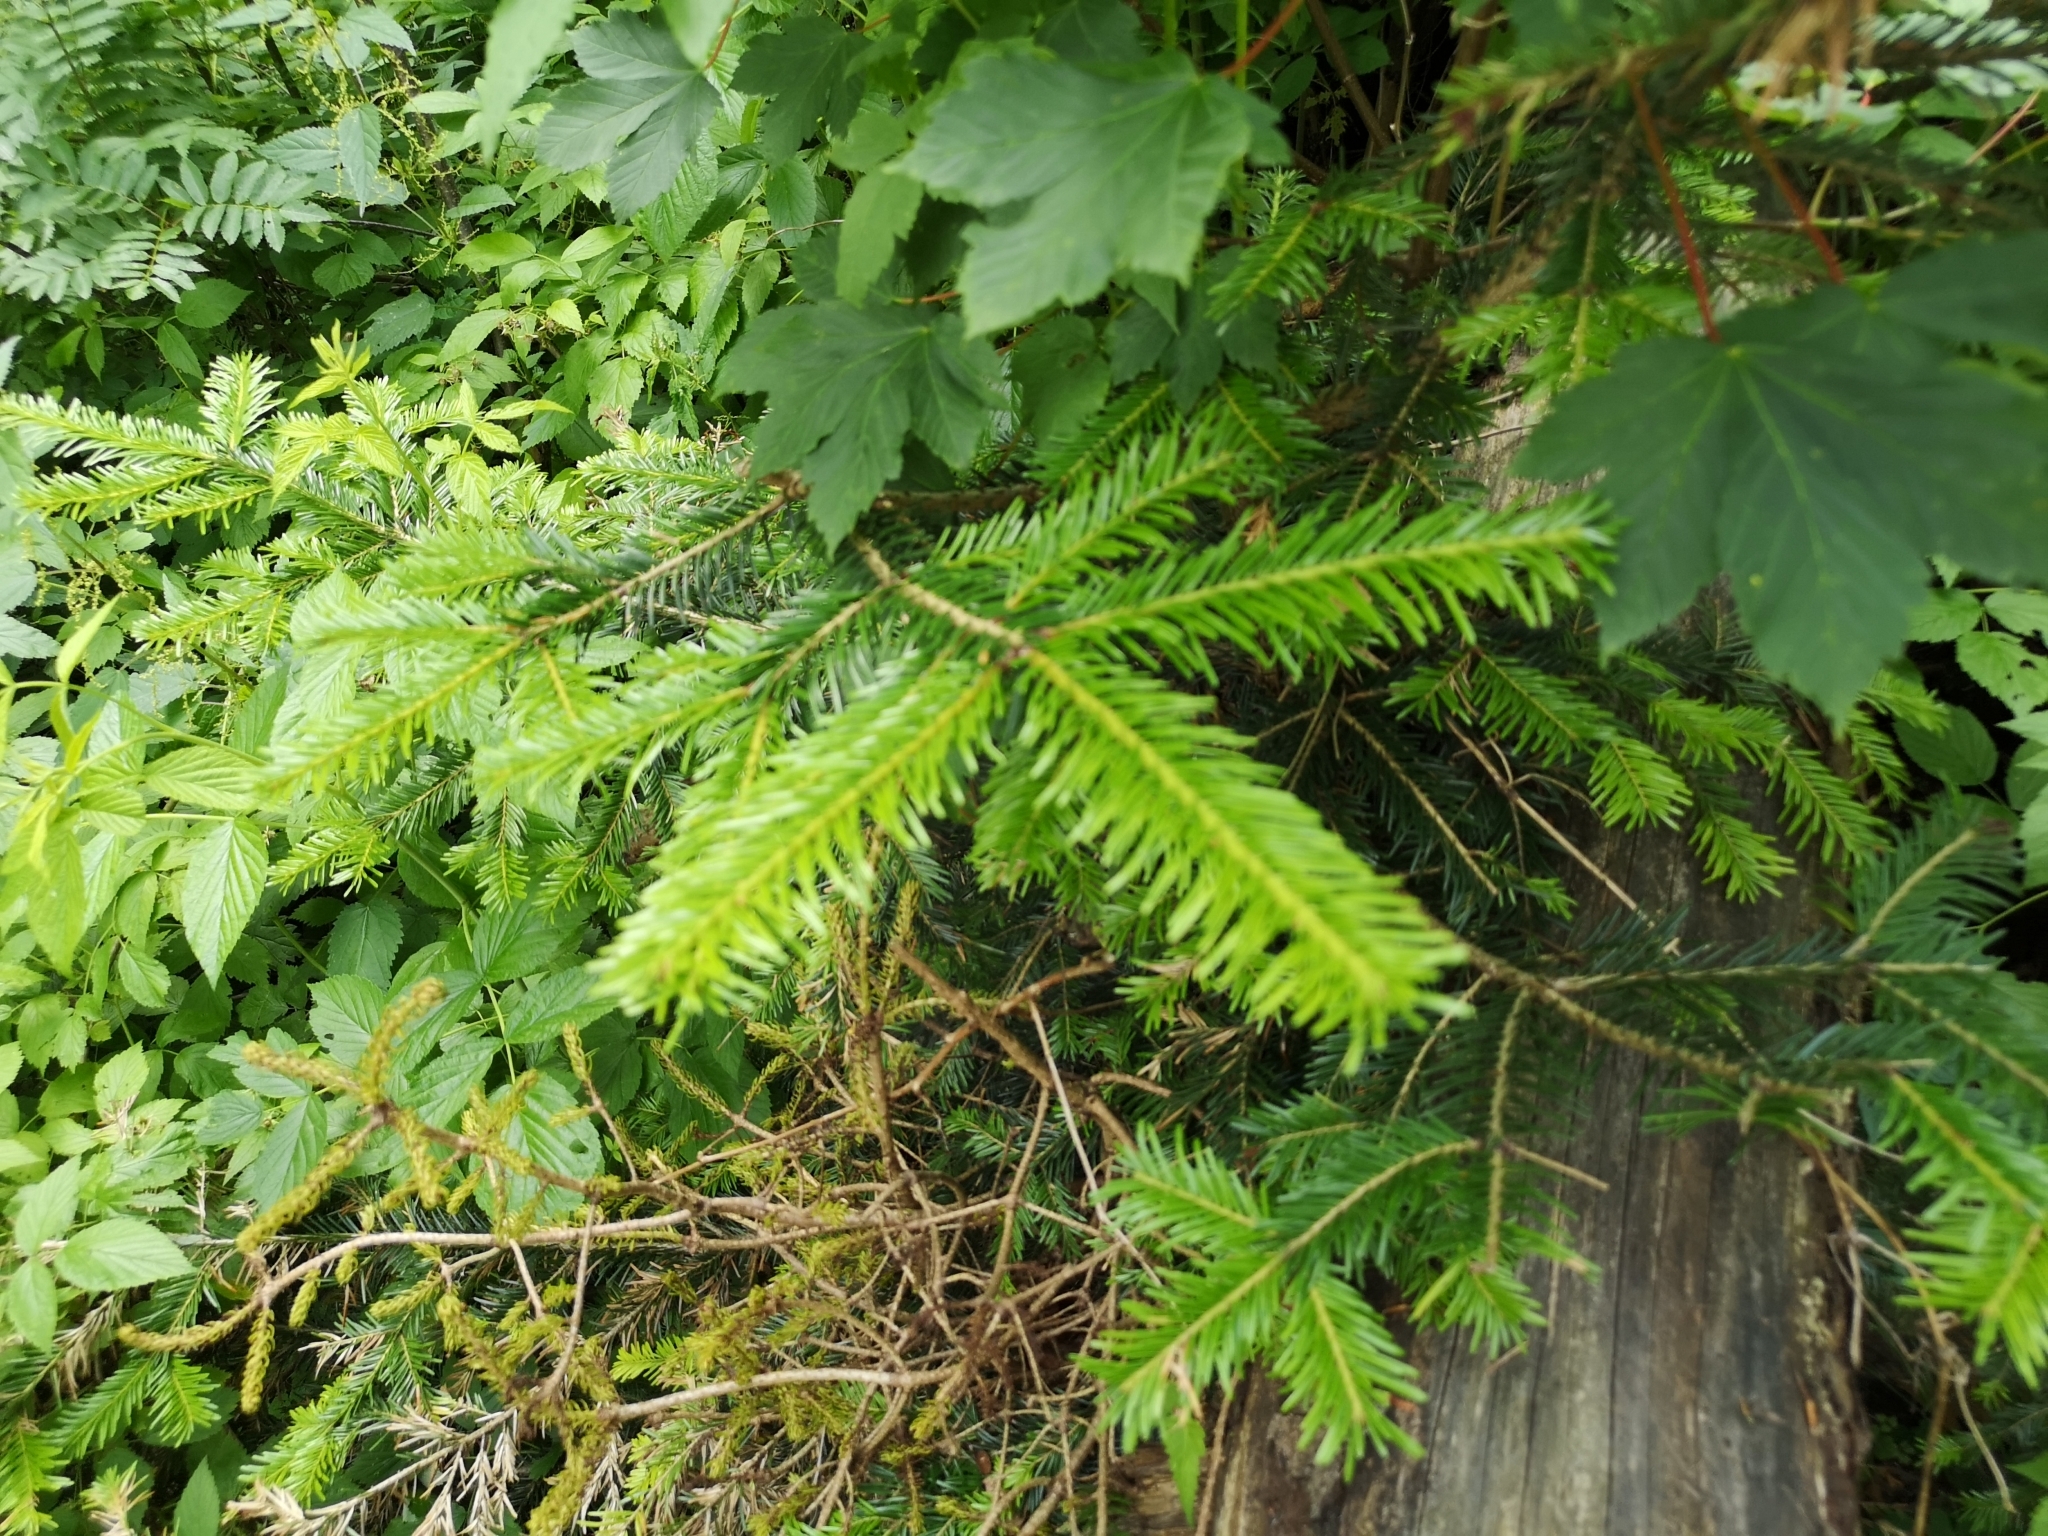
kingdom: Plantae
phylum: Tracheophyta
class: Pinopsida
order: Pinales
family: Pinaceae
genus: Abies
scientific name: Abies alba
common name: Silver fir
